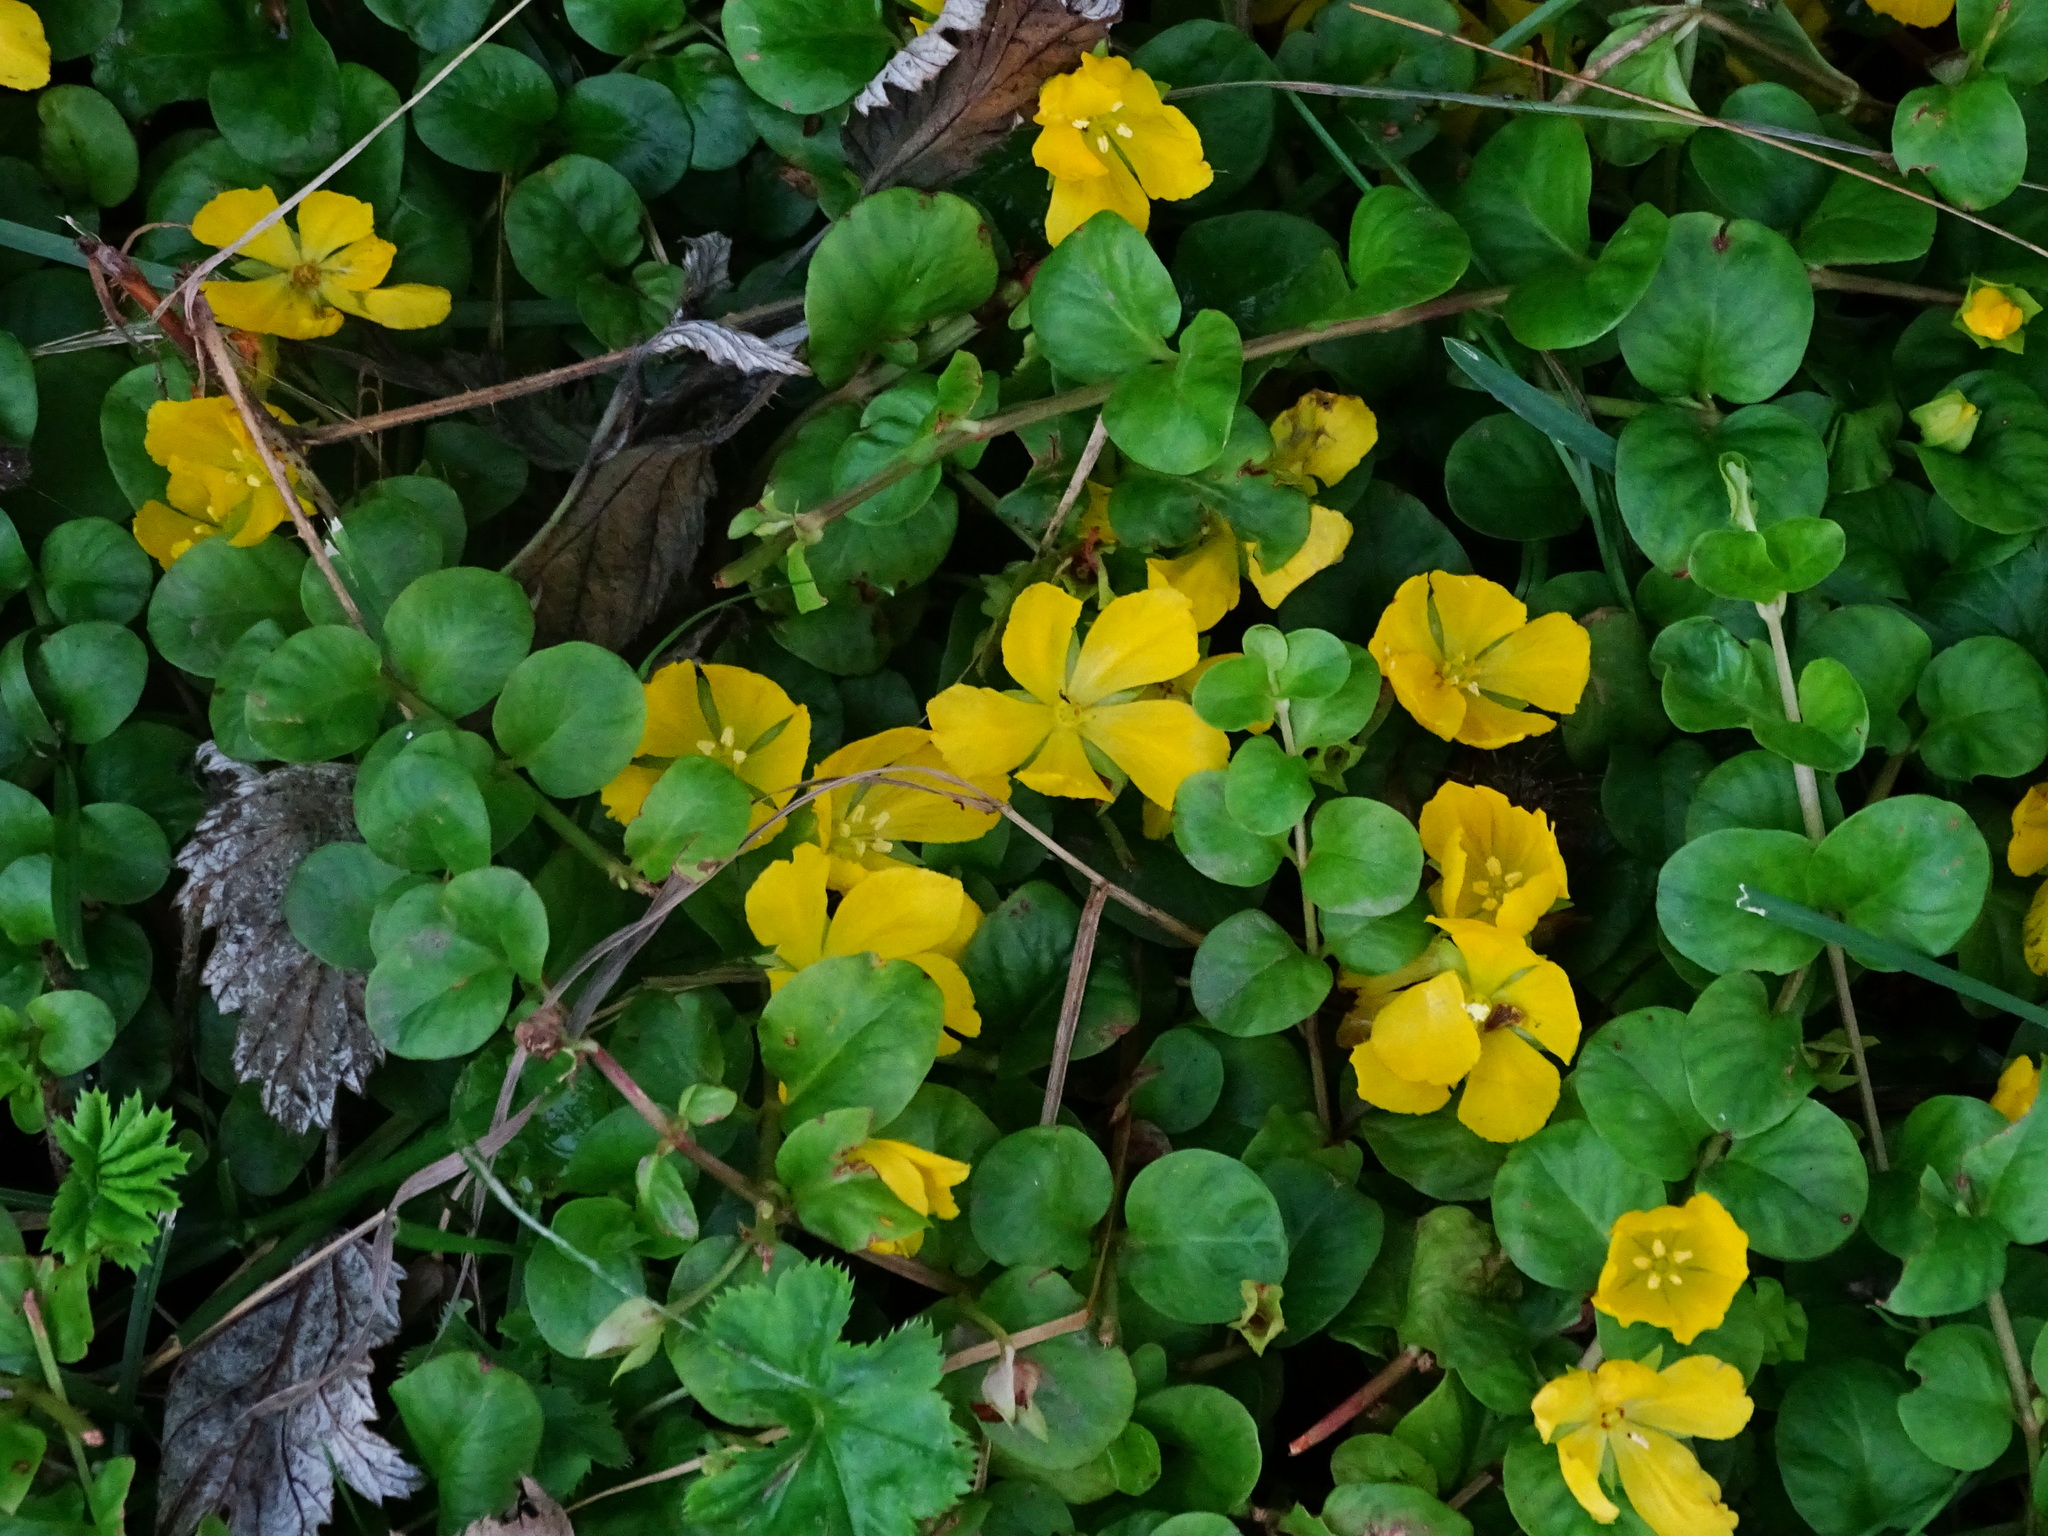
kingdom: Plantae
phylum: Tracheophyta
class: Magnoliopsida
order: Ericales
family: Primulaceae
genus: Lysimachia
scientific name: Lysimachia nummularia
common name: Moneywort
